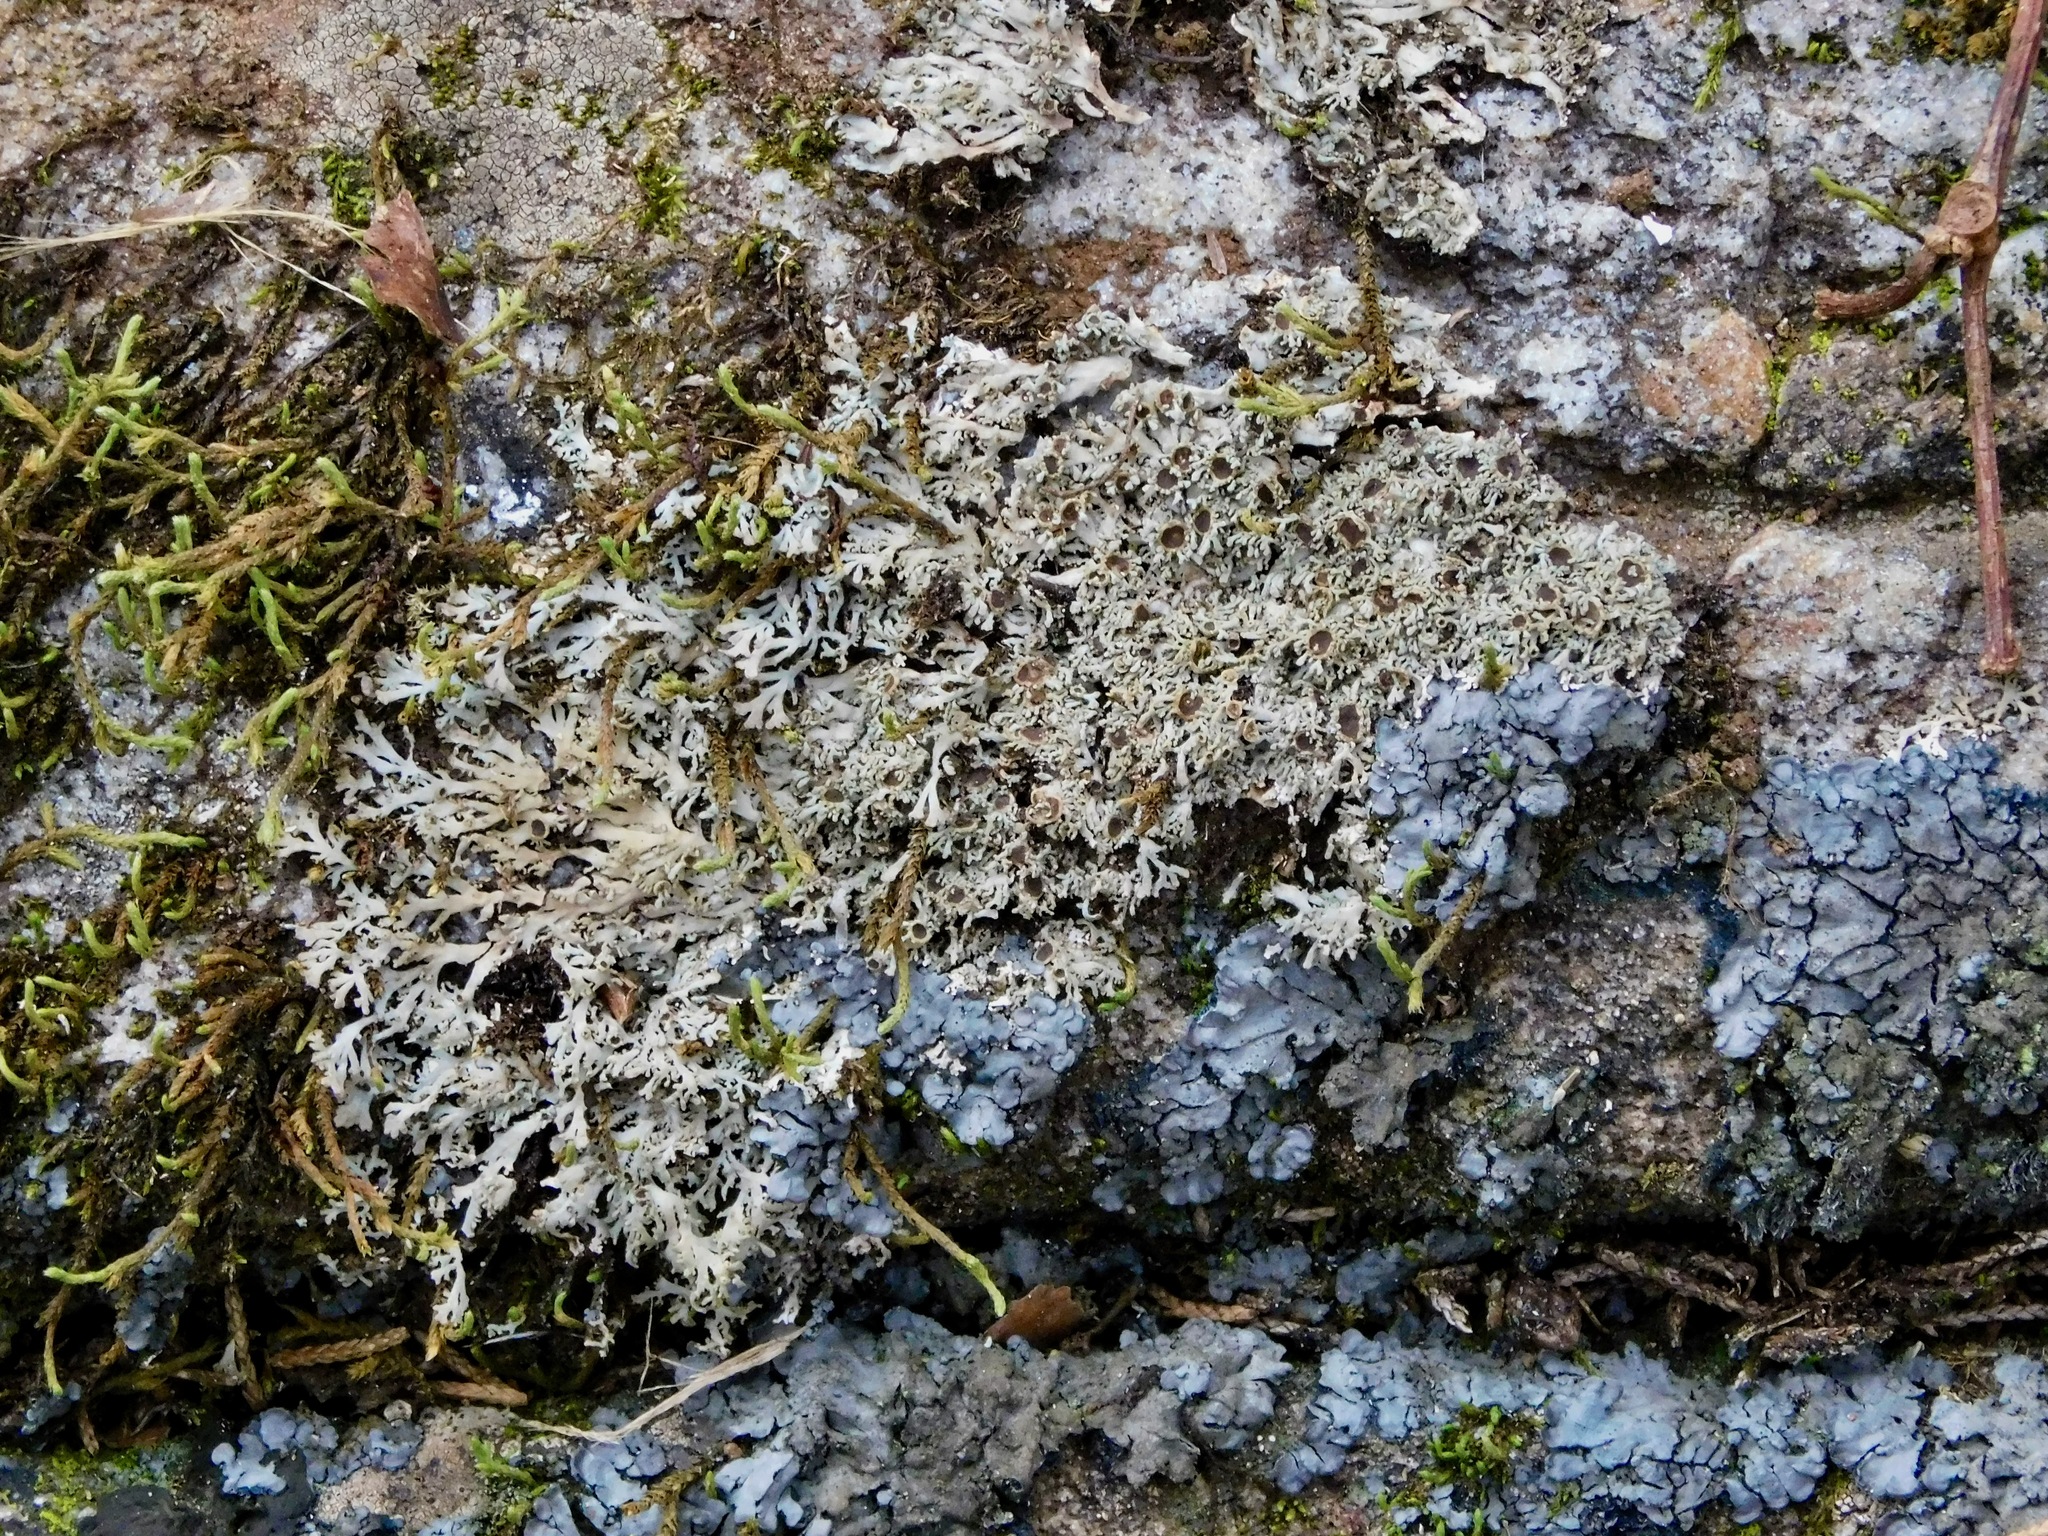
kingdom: Fungi
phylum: Ascomycota
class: Lecanoromycetes
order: Caliciales
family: Physciaceae
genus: Kurokawia
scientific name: Kurokawia palmulata
